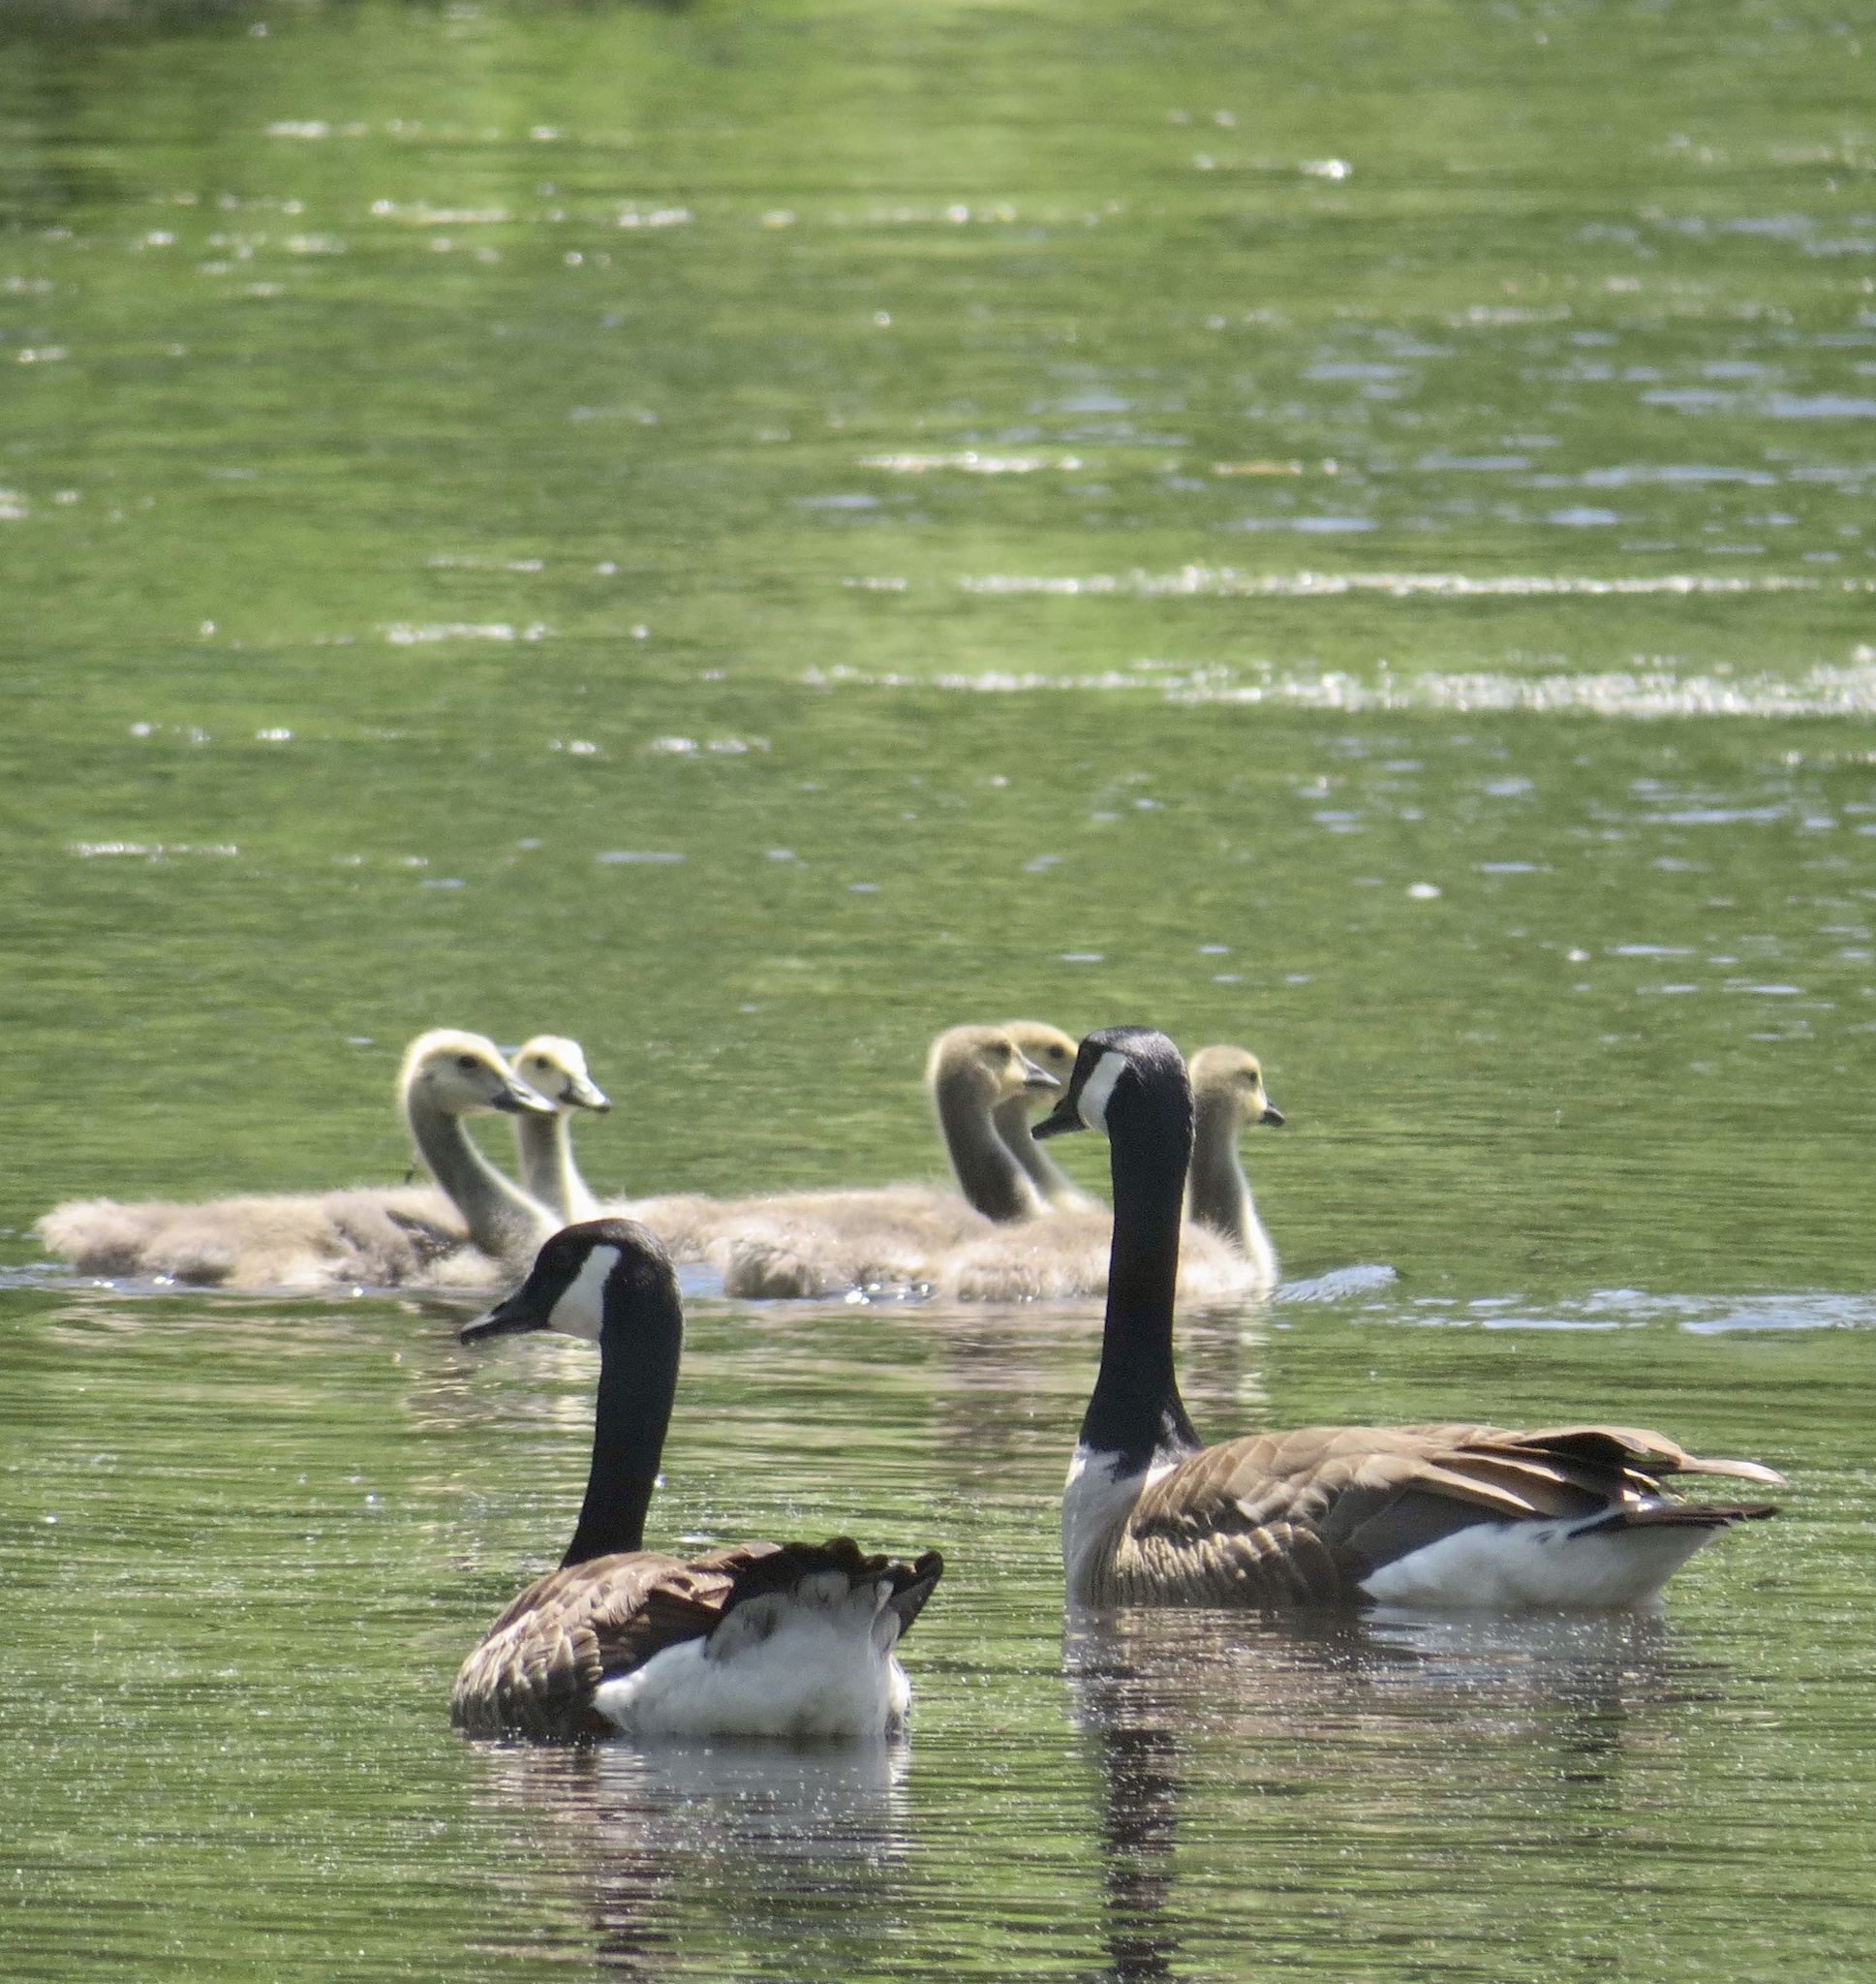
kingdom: Animalia
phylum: Chordata
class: Aves
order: Anseriformes
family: Anatidae
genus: Branta
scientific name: Branta canadensis
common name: Canada goose
